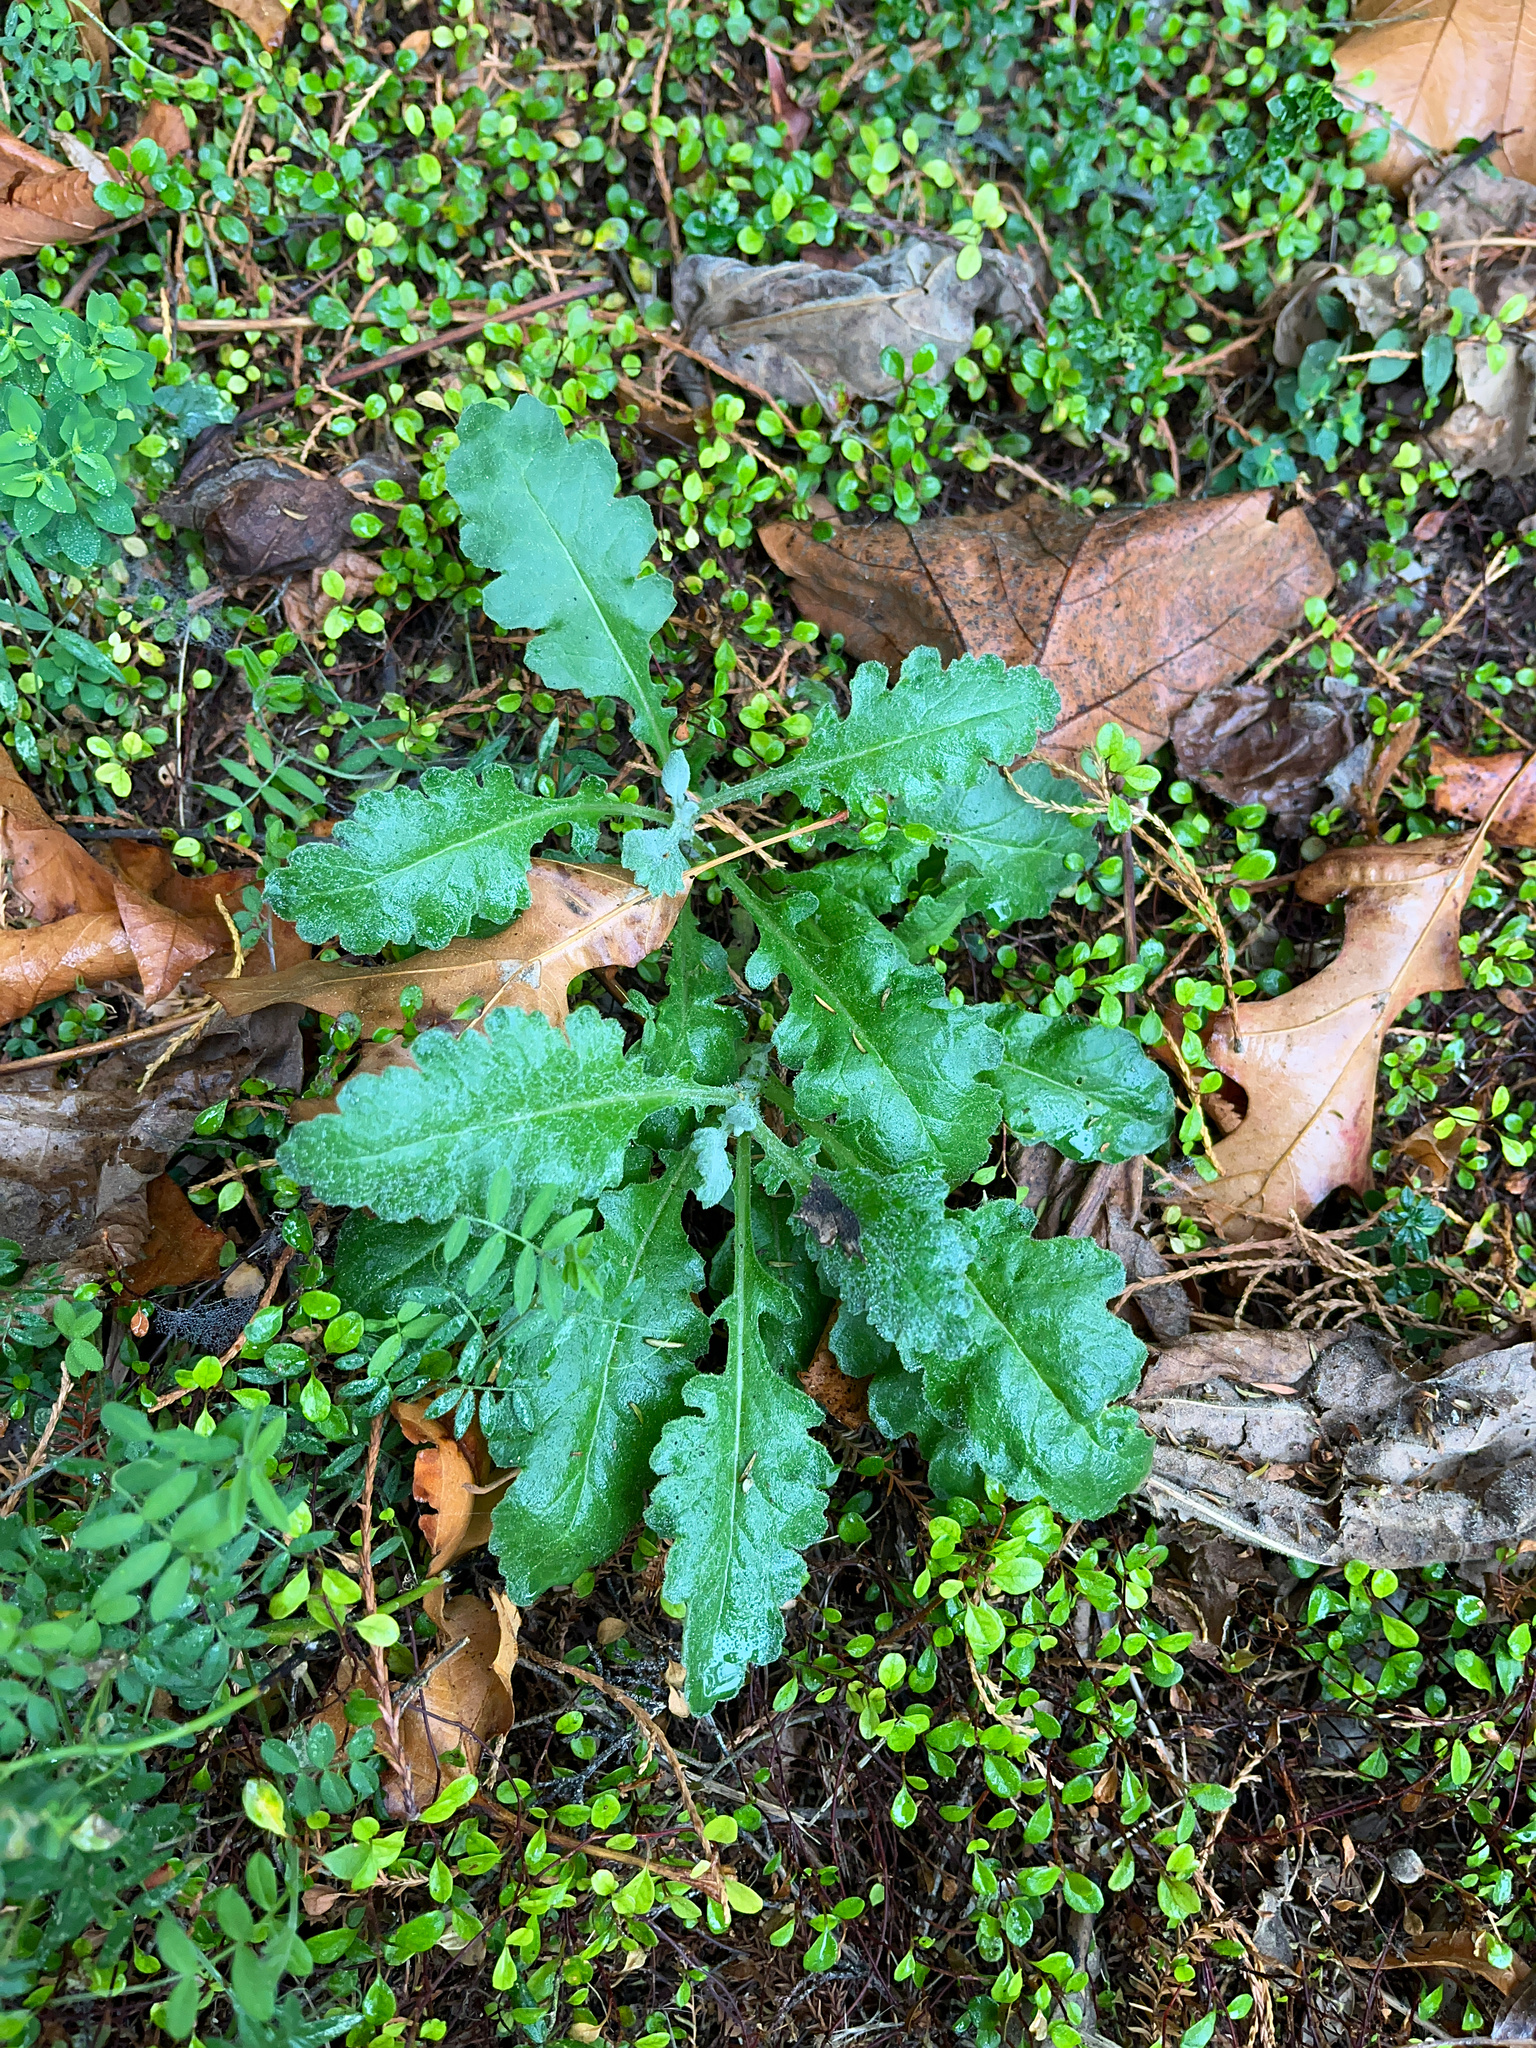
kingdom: Plantae
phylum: Tracheophyta
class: Magnoliopsida
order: Asterales
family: Asteraceae
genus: Senecio
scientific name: Senecio glomeratus
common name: Cutleaf burnweed
